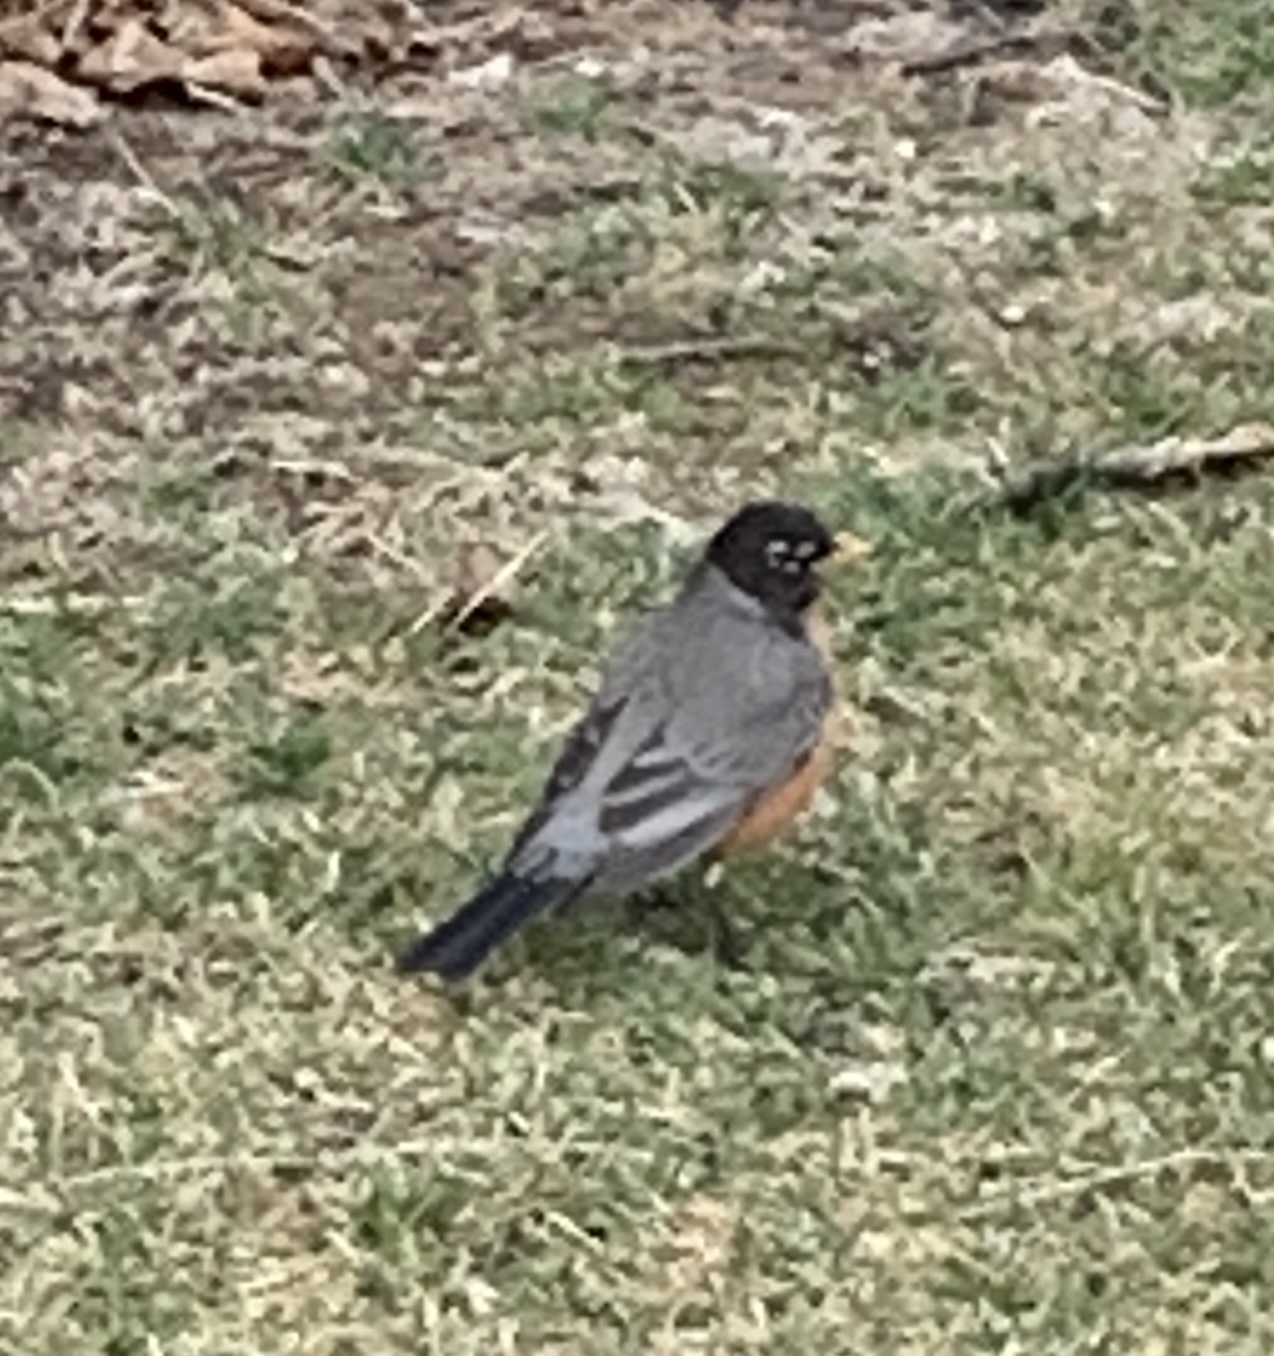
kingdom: Animalia
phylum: Chordata
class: Aves
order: Passeriformes
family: Turdidae
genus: Turdus
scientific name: Turdus migratorius
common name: American robin
